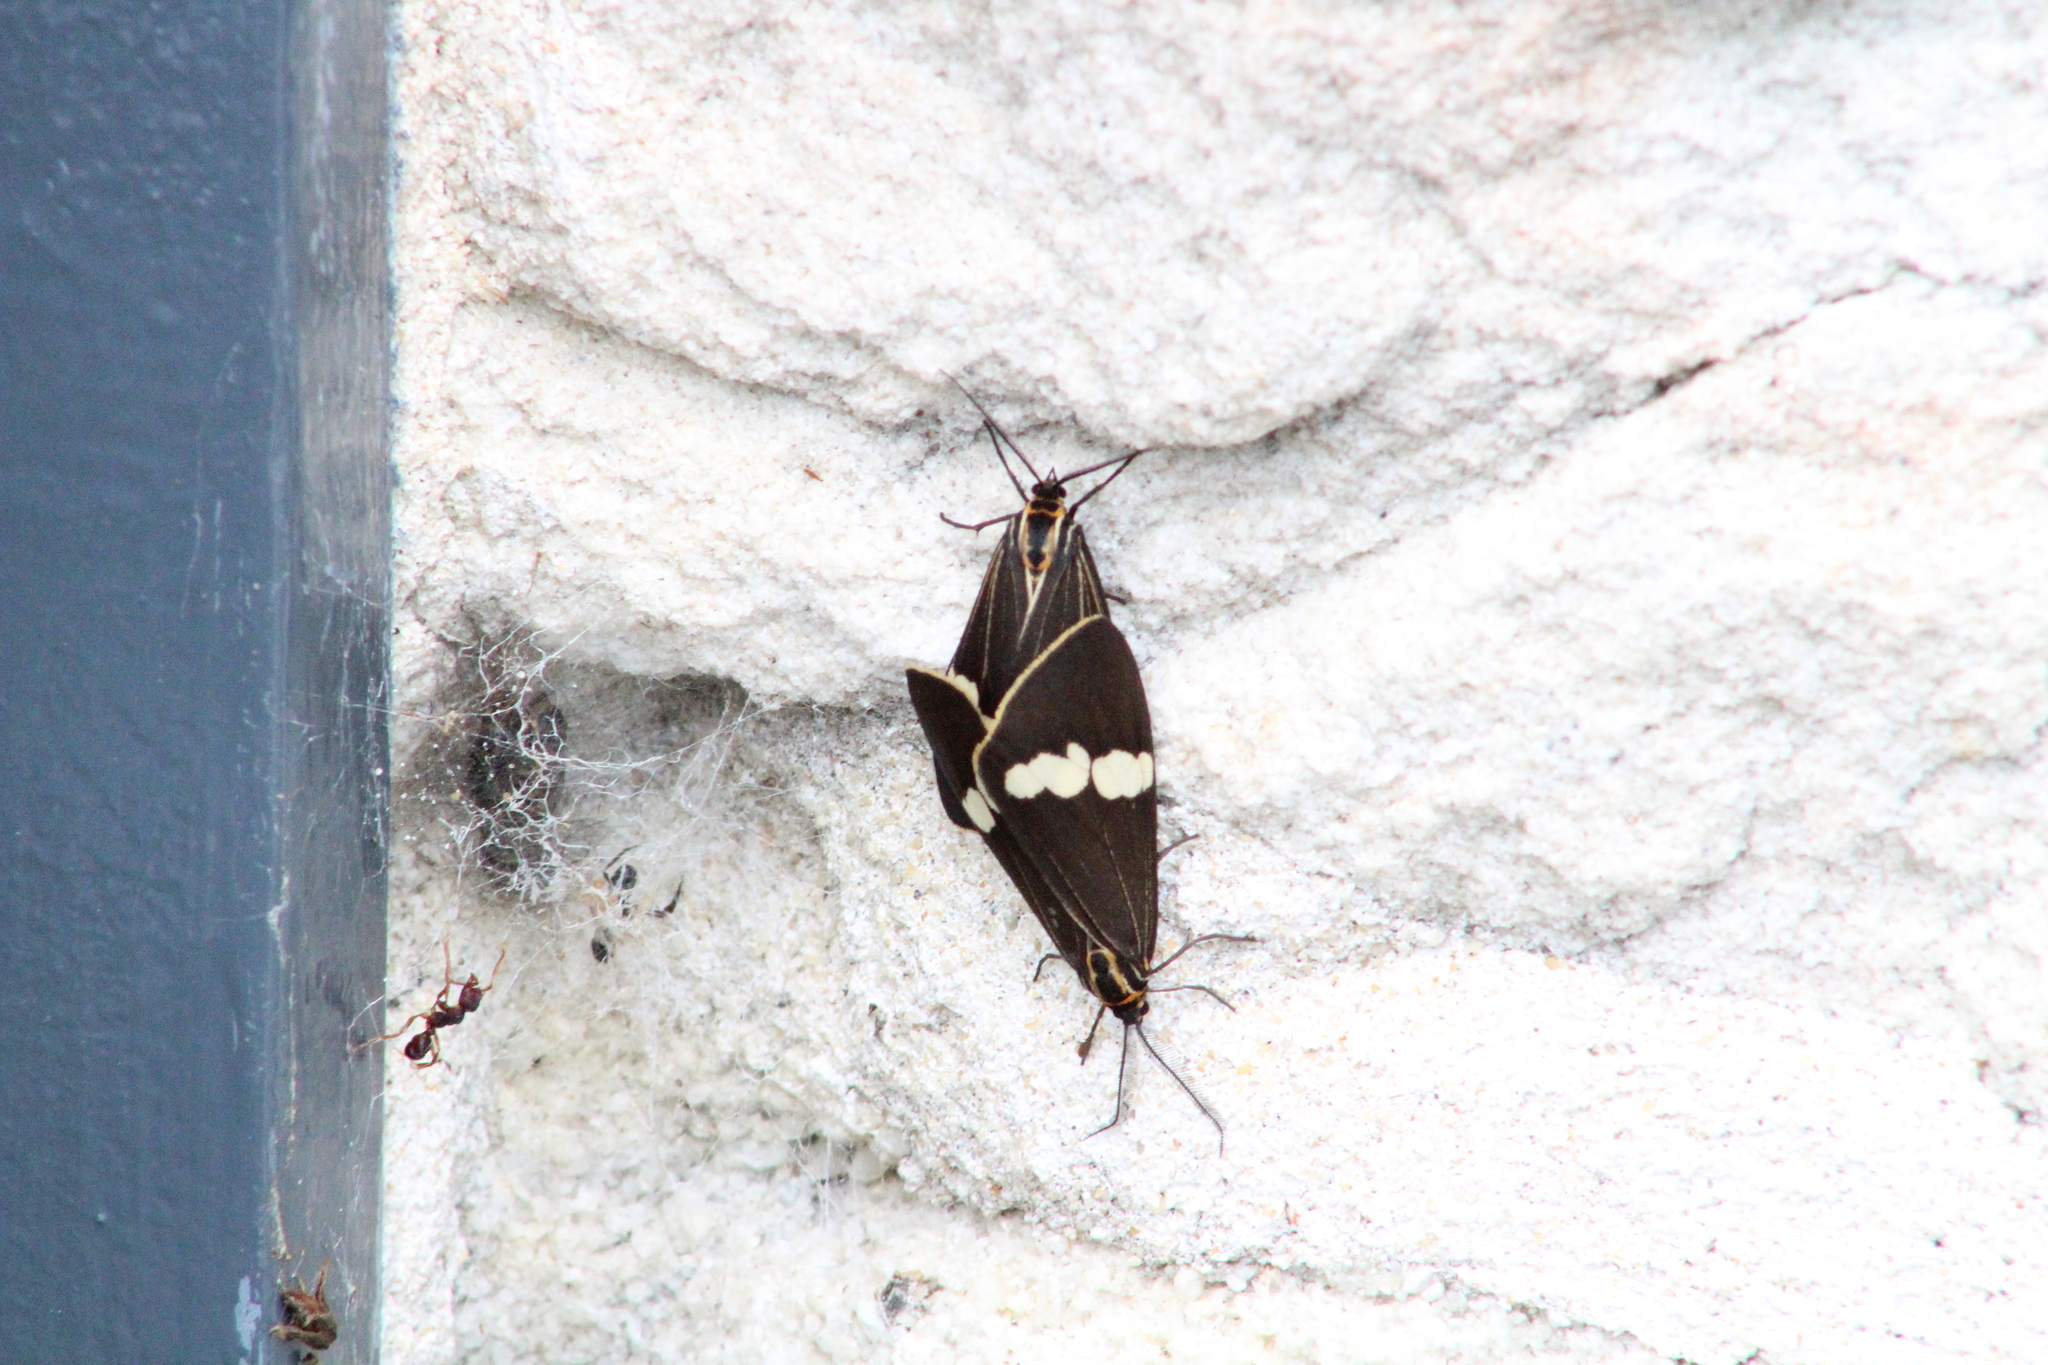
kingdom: Animalia
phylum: Arthropoda
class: Insecta
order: Lepidoptera
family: Erebidae
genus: Nyctemera
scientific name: Nyctemera amicus
